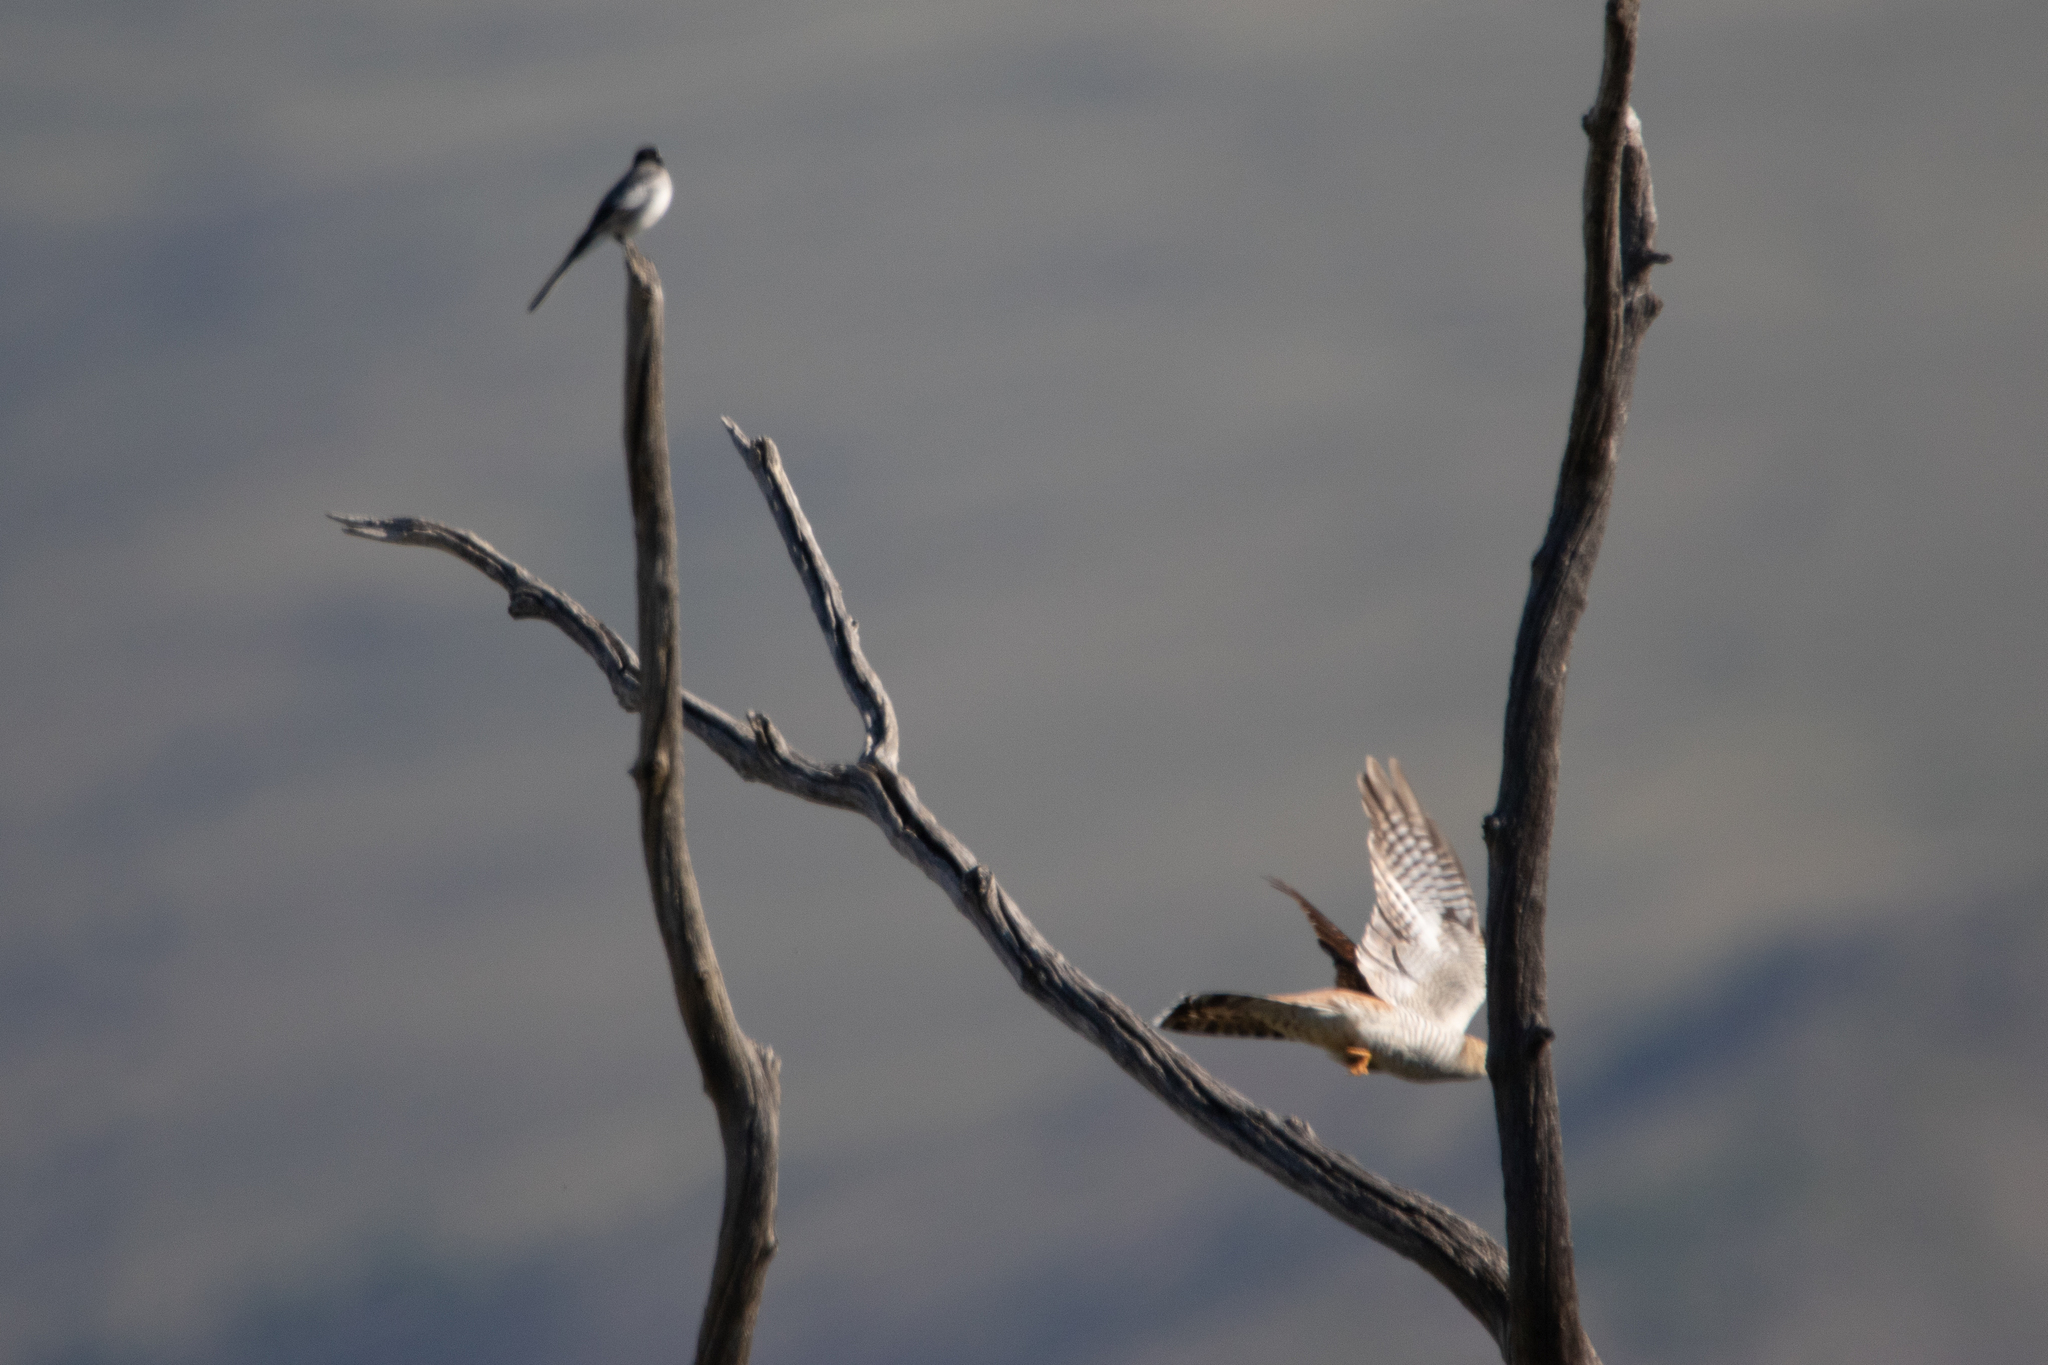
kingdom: Animalia
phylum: Chordata
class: Aves
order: Cuculiformes
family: Cuculidae
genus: Cuculus
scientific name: Cuculus canorus
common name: Common cuckoo
